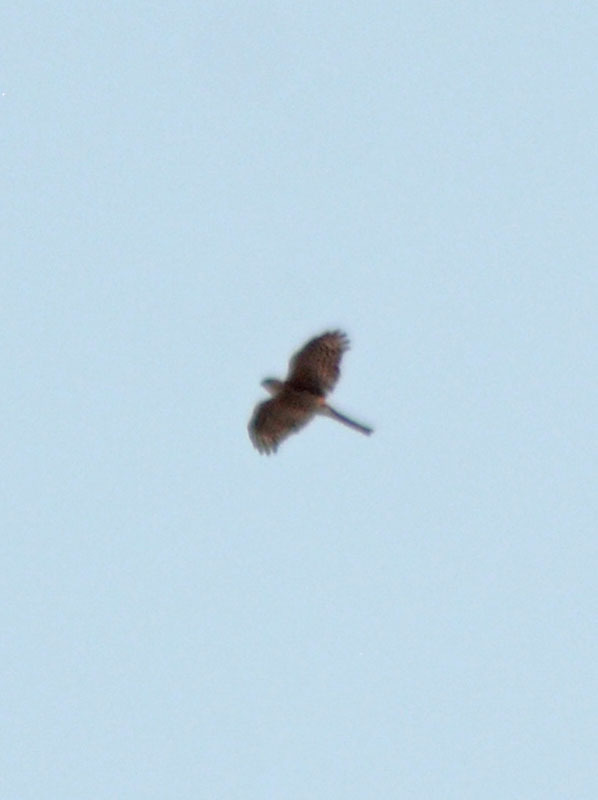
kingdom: Animalia
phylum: Chordata
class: Aves
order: Accipitriformes
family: Accipitridae
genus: Accipiter
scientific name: Accipiter striatus
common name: Sharp-shinned hawk
